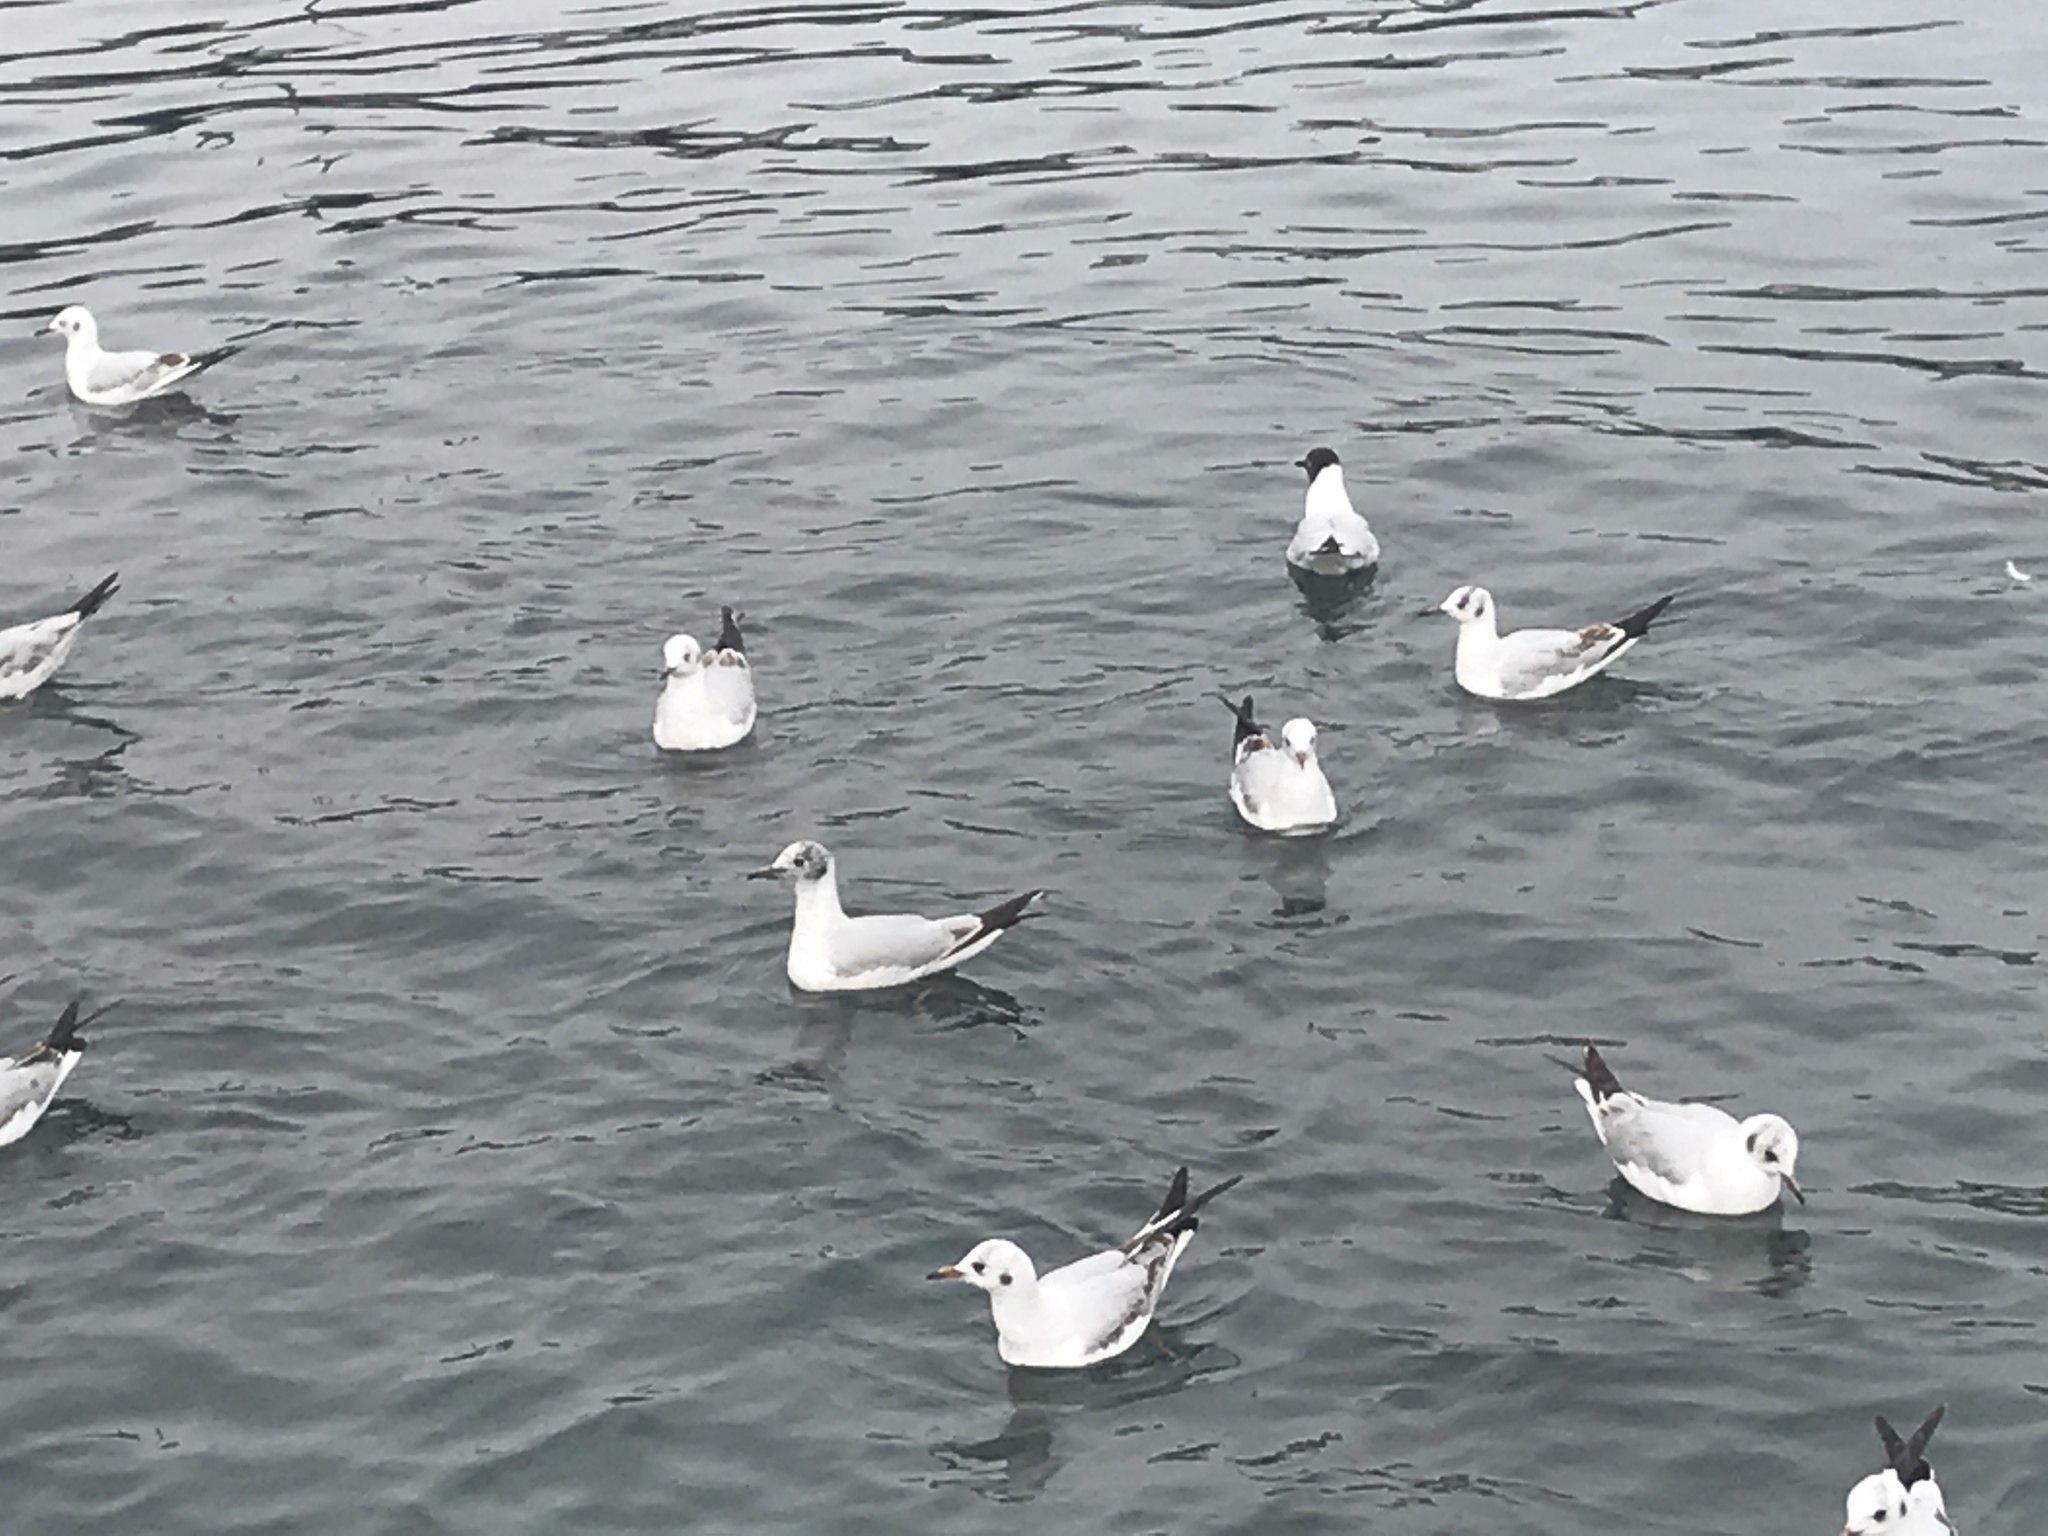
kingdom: Animalia
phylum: Chordata
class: Aves
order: Charadriiformes
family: Laridae
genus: Chroicocephalus
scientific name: Chroicocephalus ridibundus
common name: Black-headed gull
